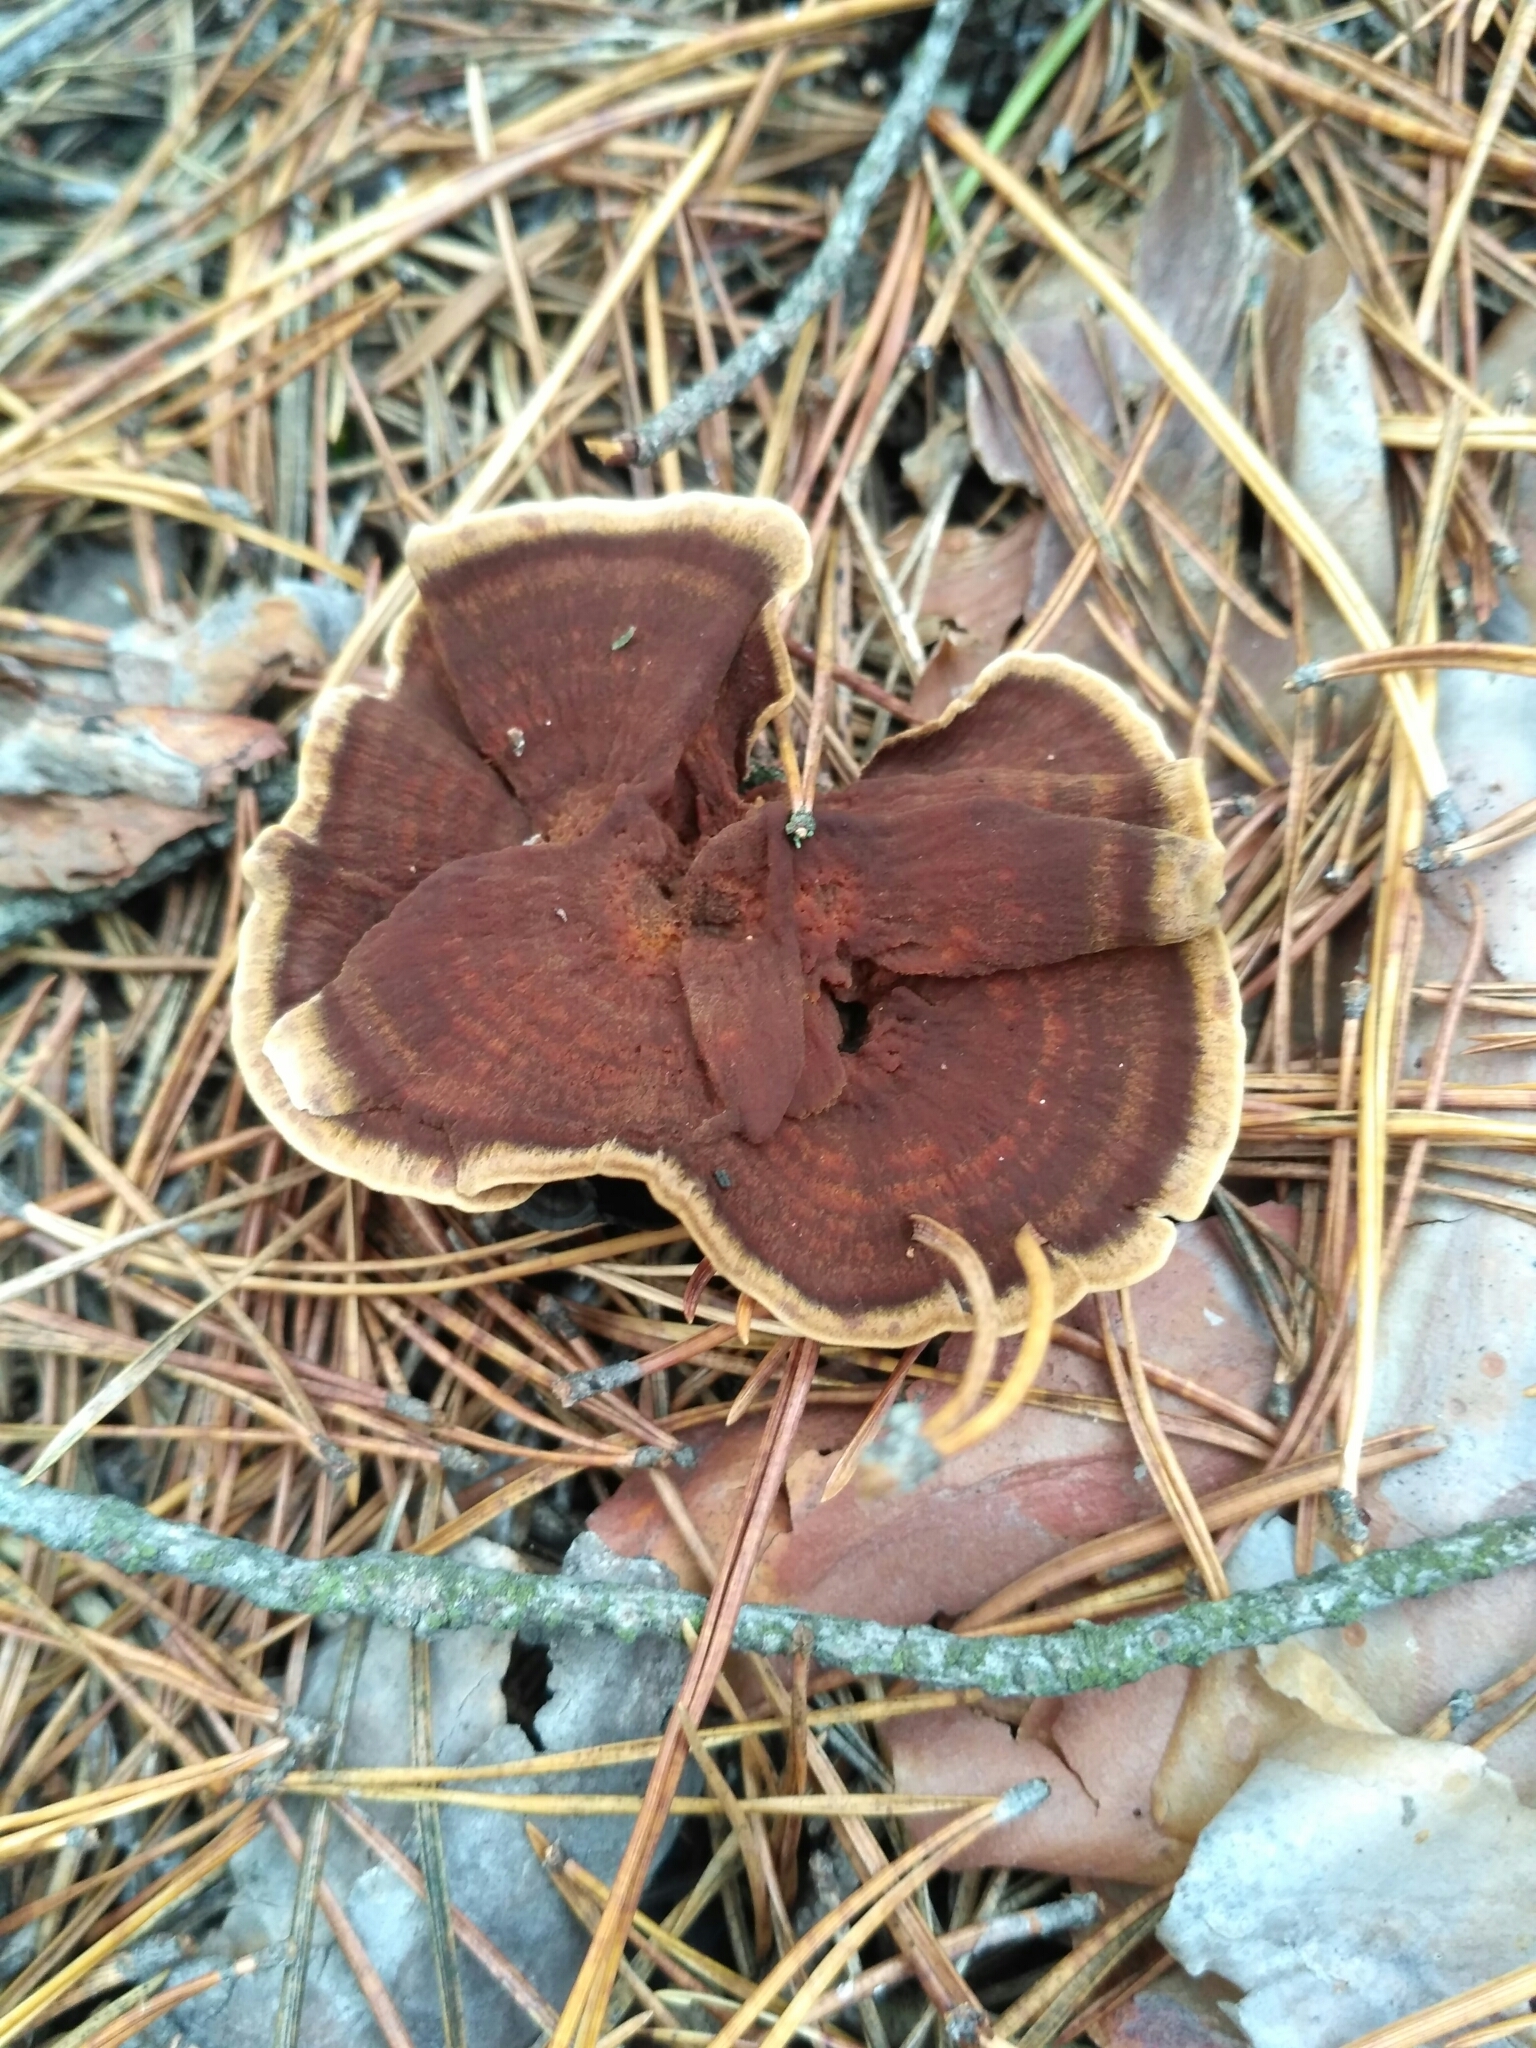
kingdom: Fungi
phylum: Basidiomycota
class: Agaricomycetes
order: Hymenochaetales
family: Hymenochaetaceae
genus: Coltricia
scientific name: Coltricia perennis
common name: Tiger's eye
